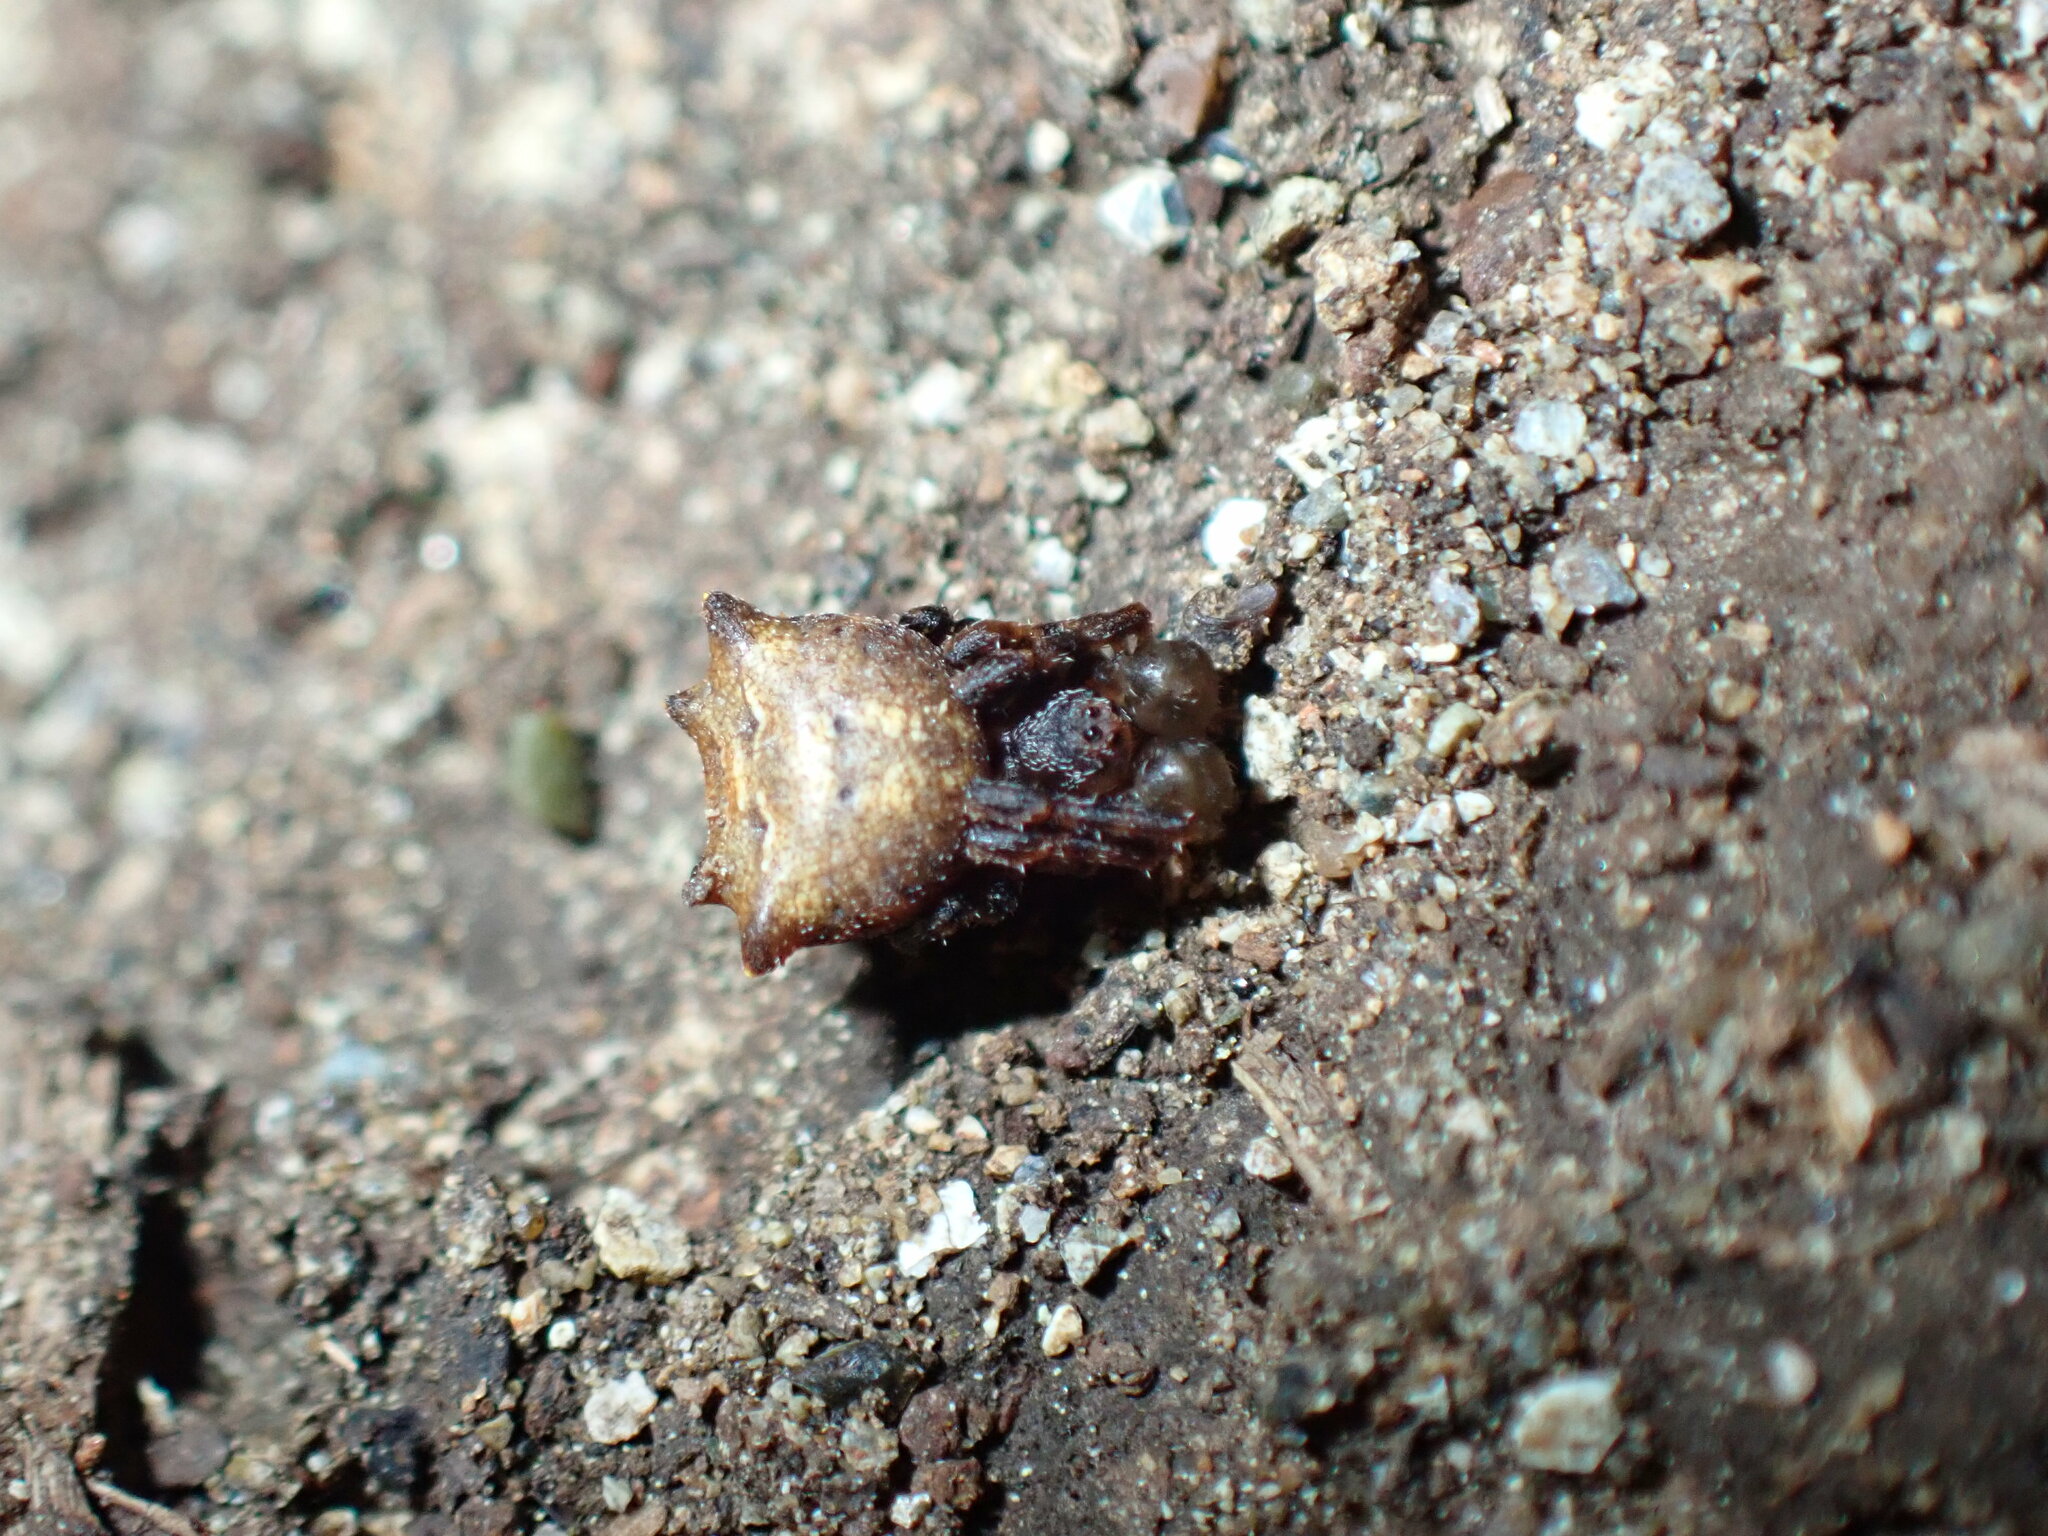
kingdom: Animalia
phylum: Arthropoda
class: Arachnida
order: Araneae
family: Araneidae
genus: Glyptogona
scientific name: Glyptogona sextuberculata
